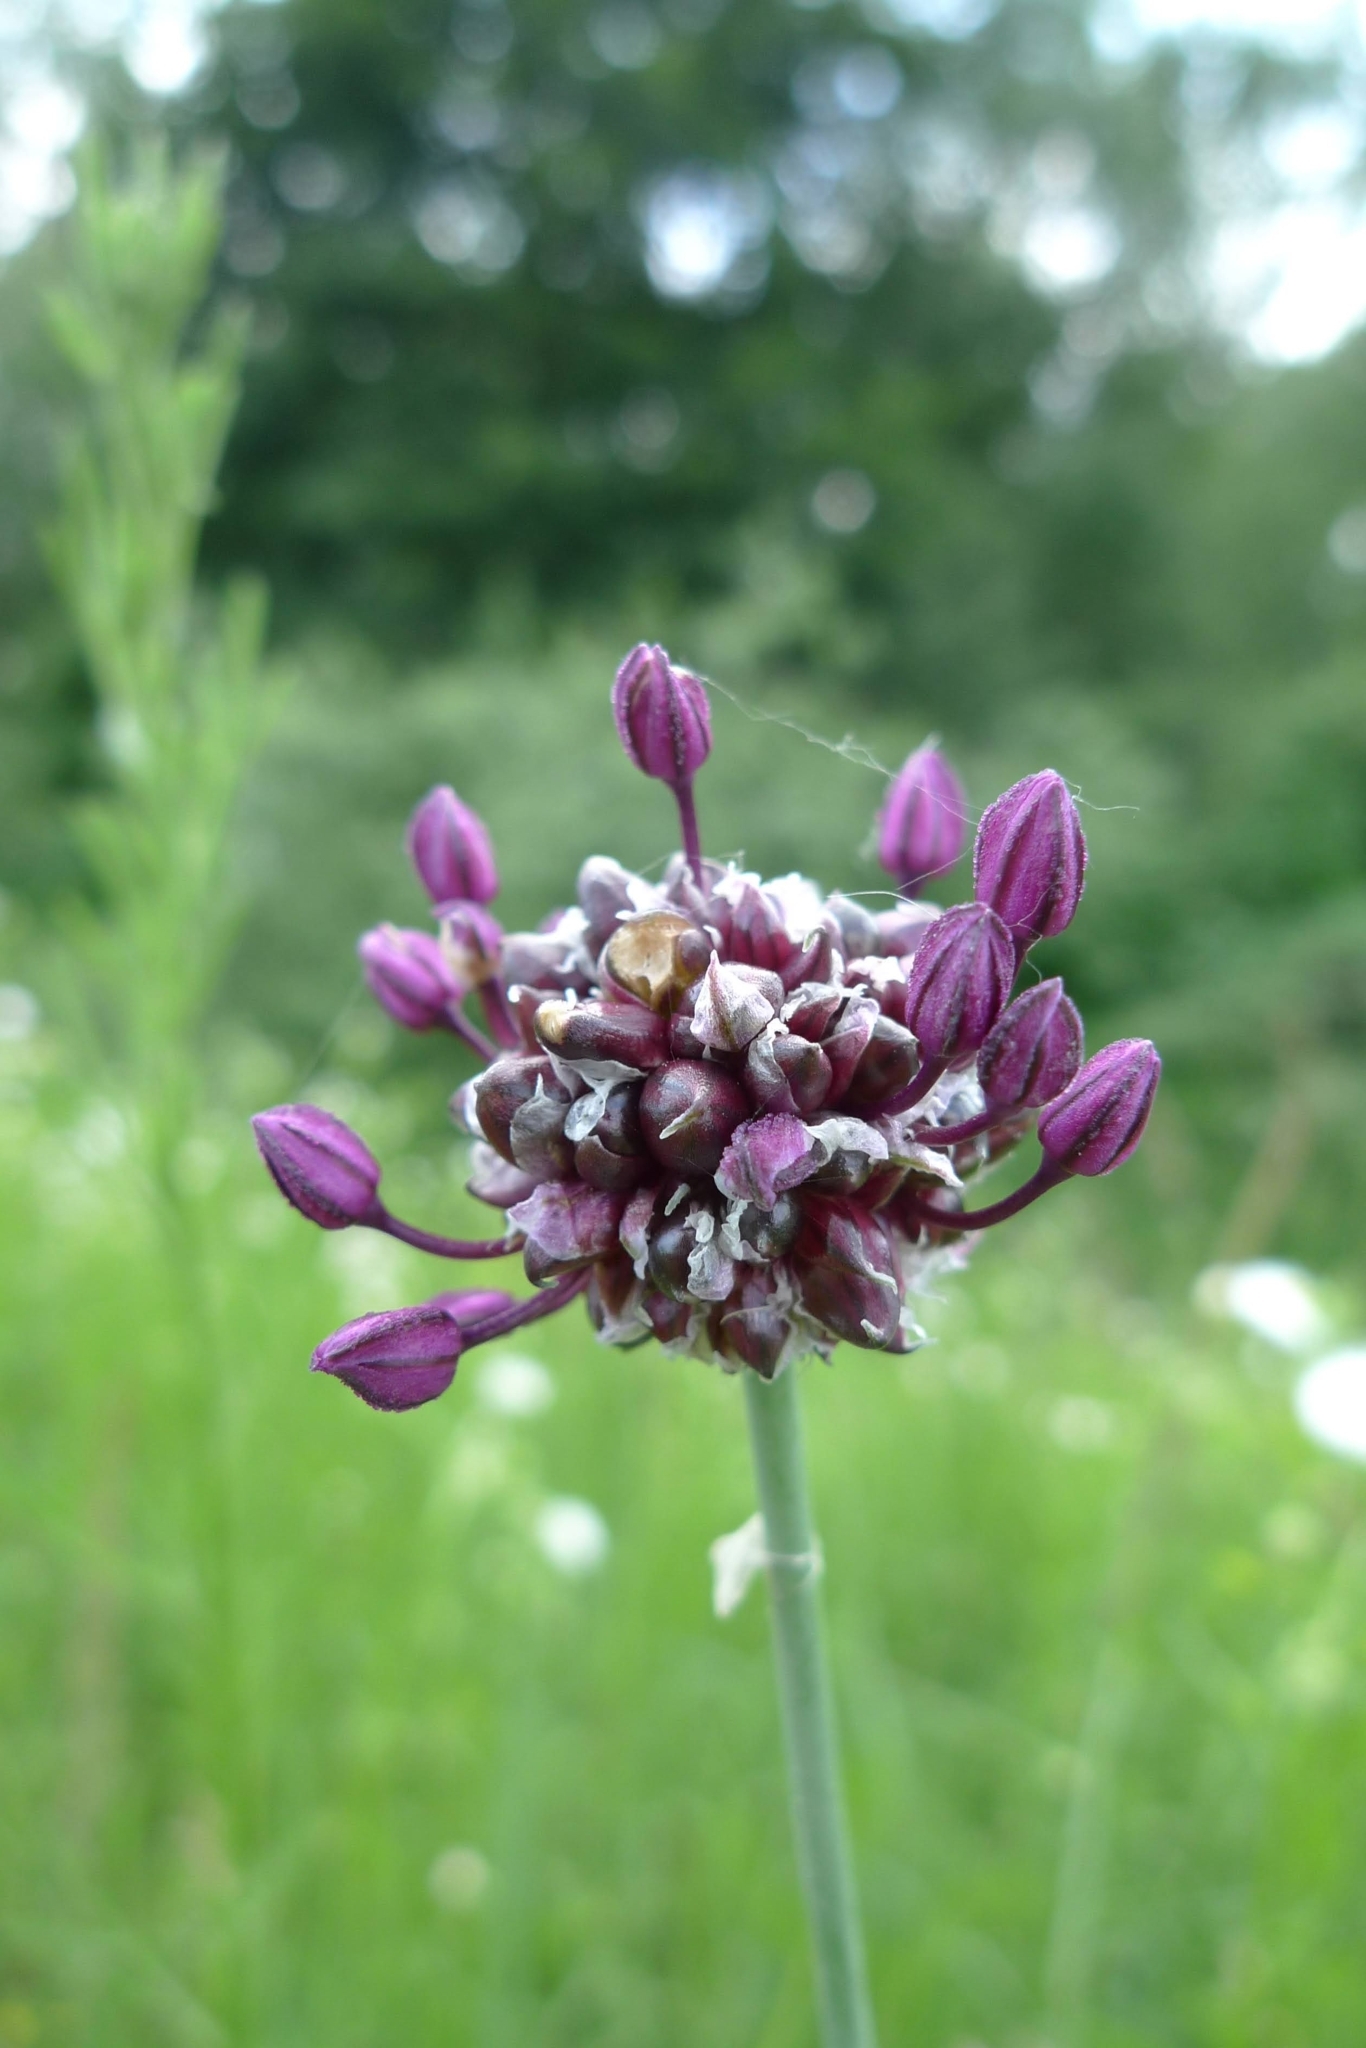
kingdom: Plantae
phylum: Tracheophyta
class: Liliopsida
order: Asparagales
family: Amaryllidaceae
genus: Allium
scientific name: Allium scorodoprasum
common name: Sand leek
